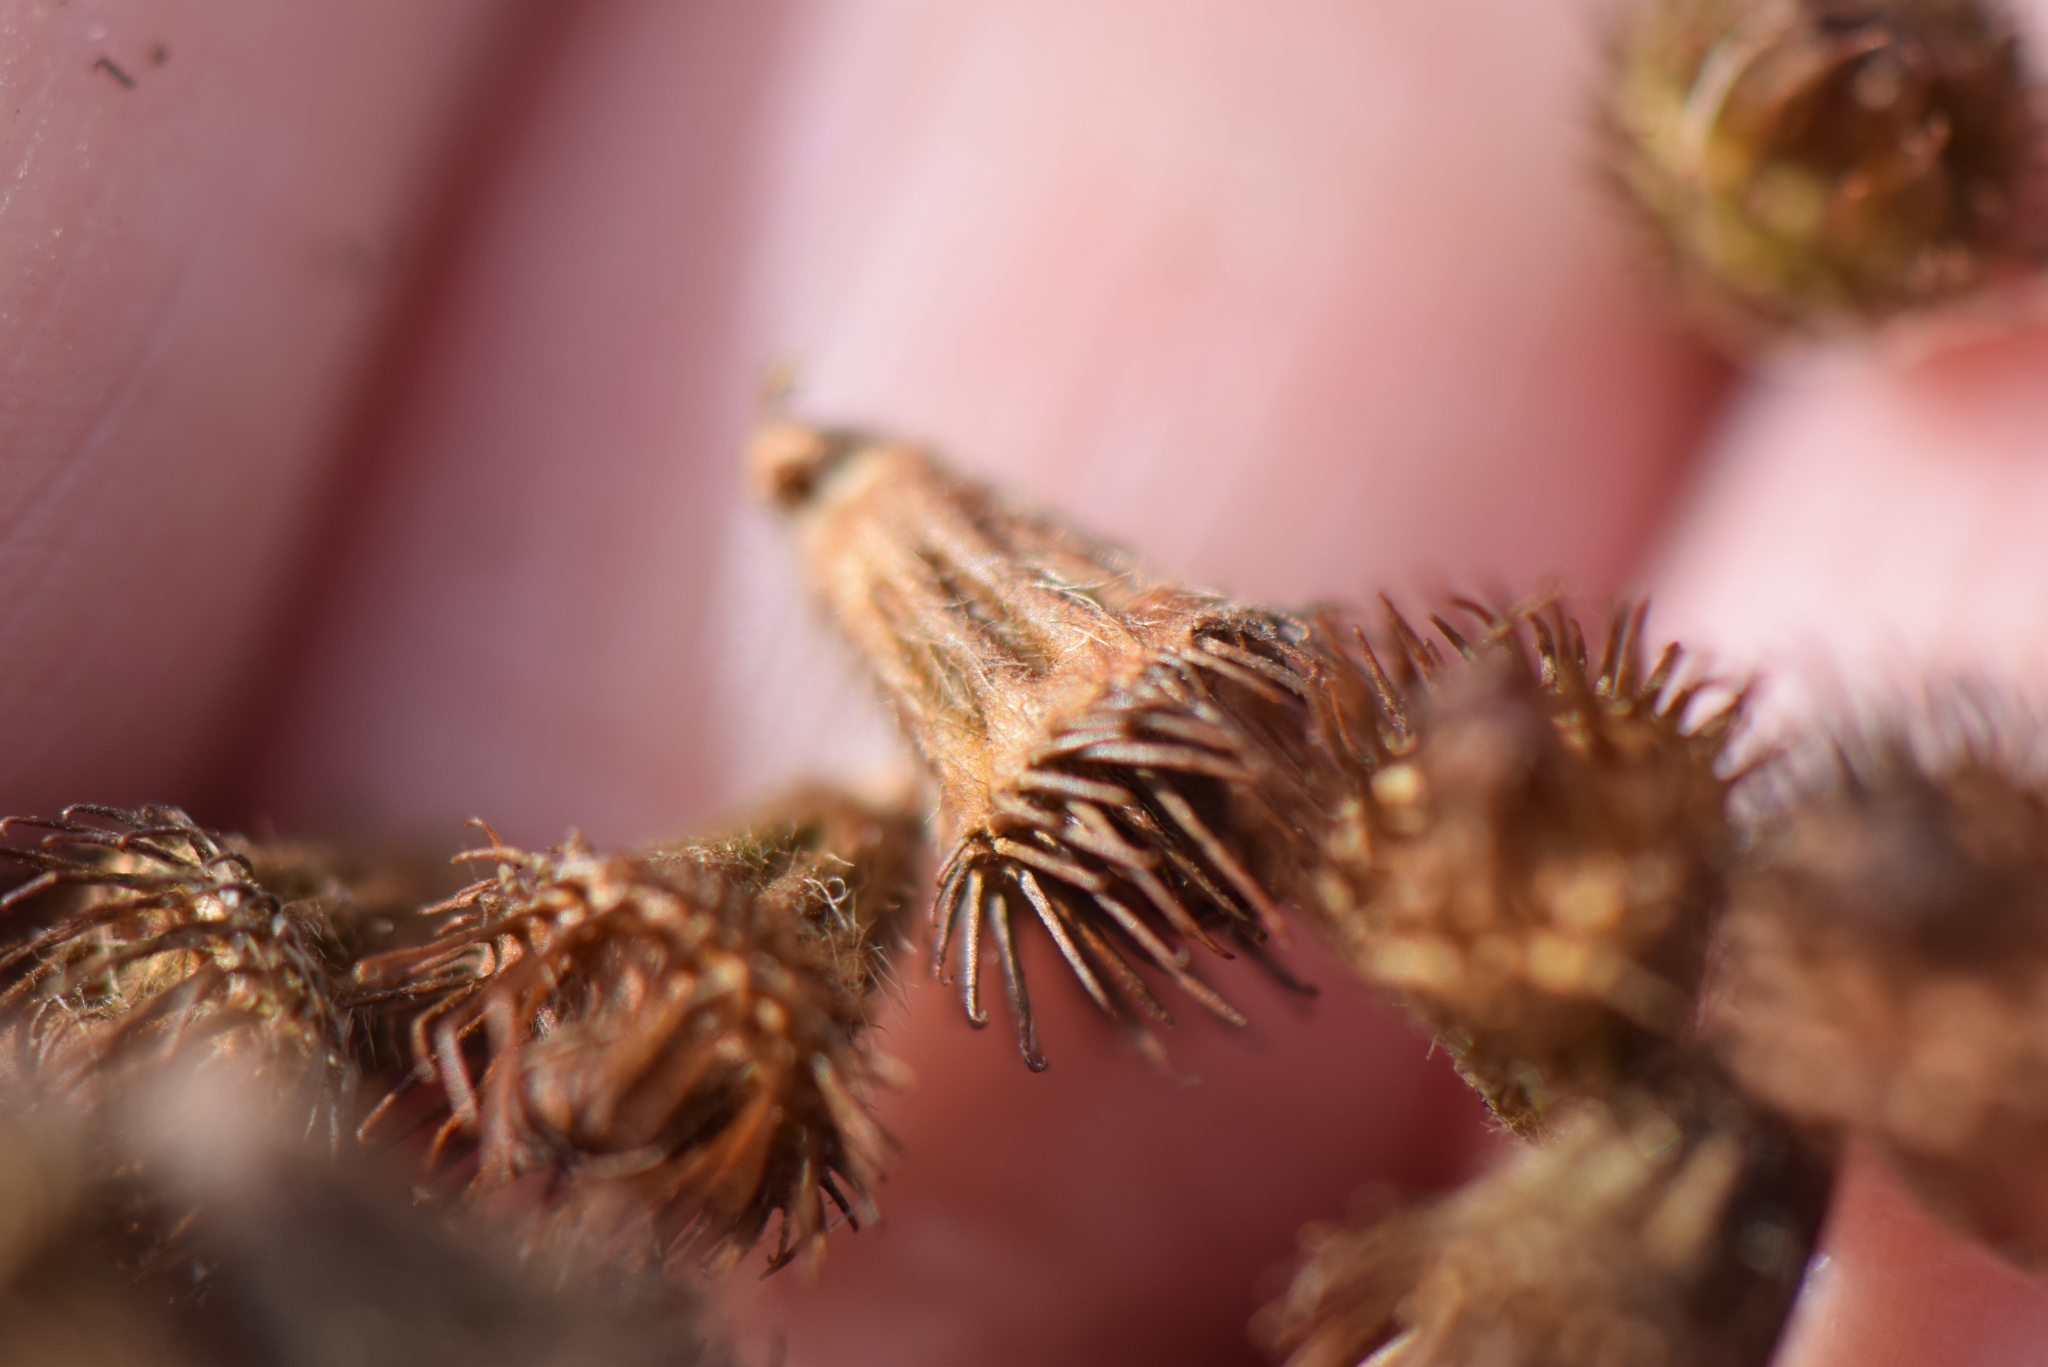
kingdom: Plantae
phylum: Tracheophyta
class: Magnoliopsida
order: Rosales
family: Rosaceae
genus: Agrimonia
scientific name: Agrimonia eupatoria
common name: Agrimony
